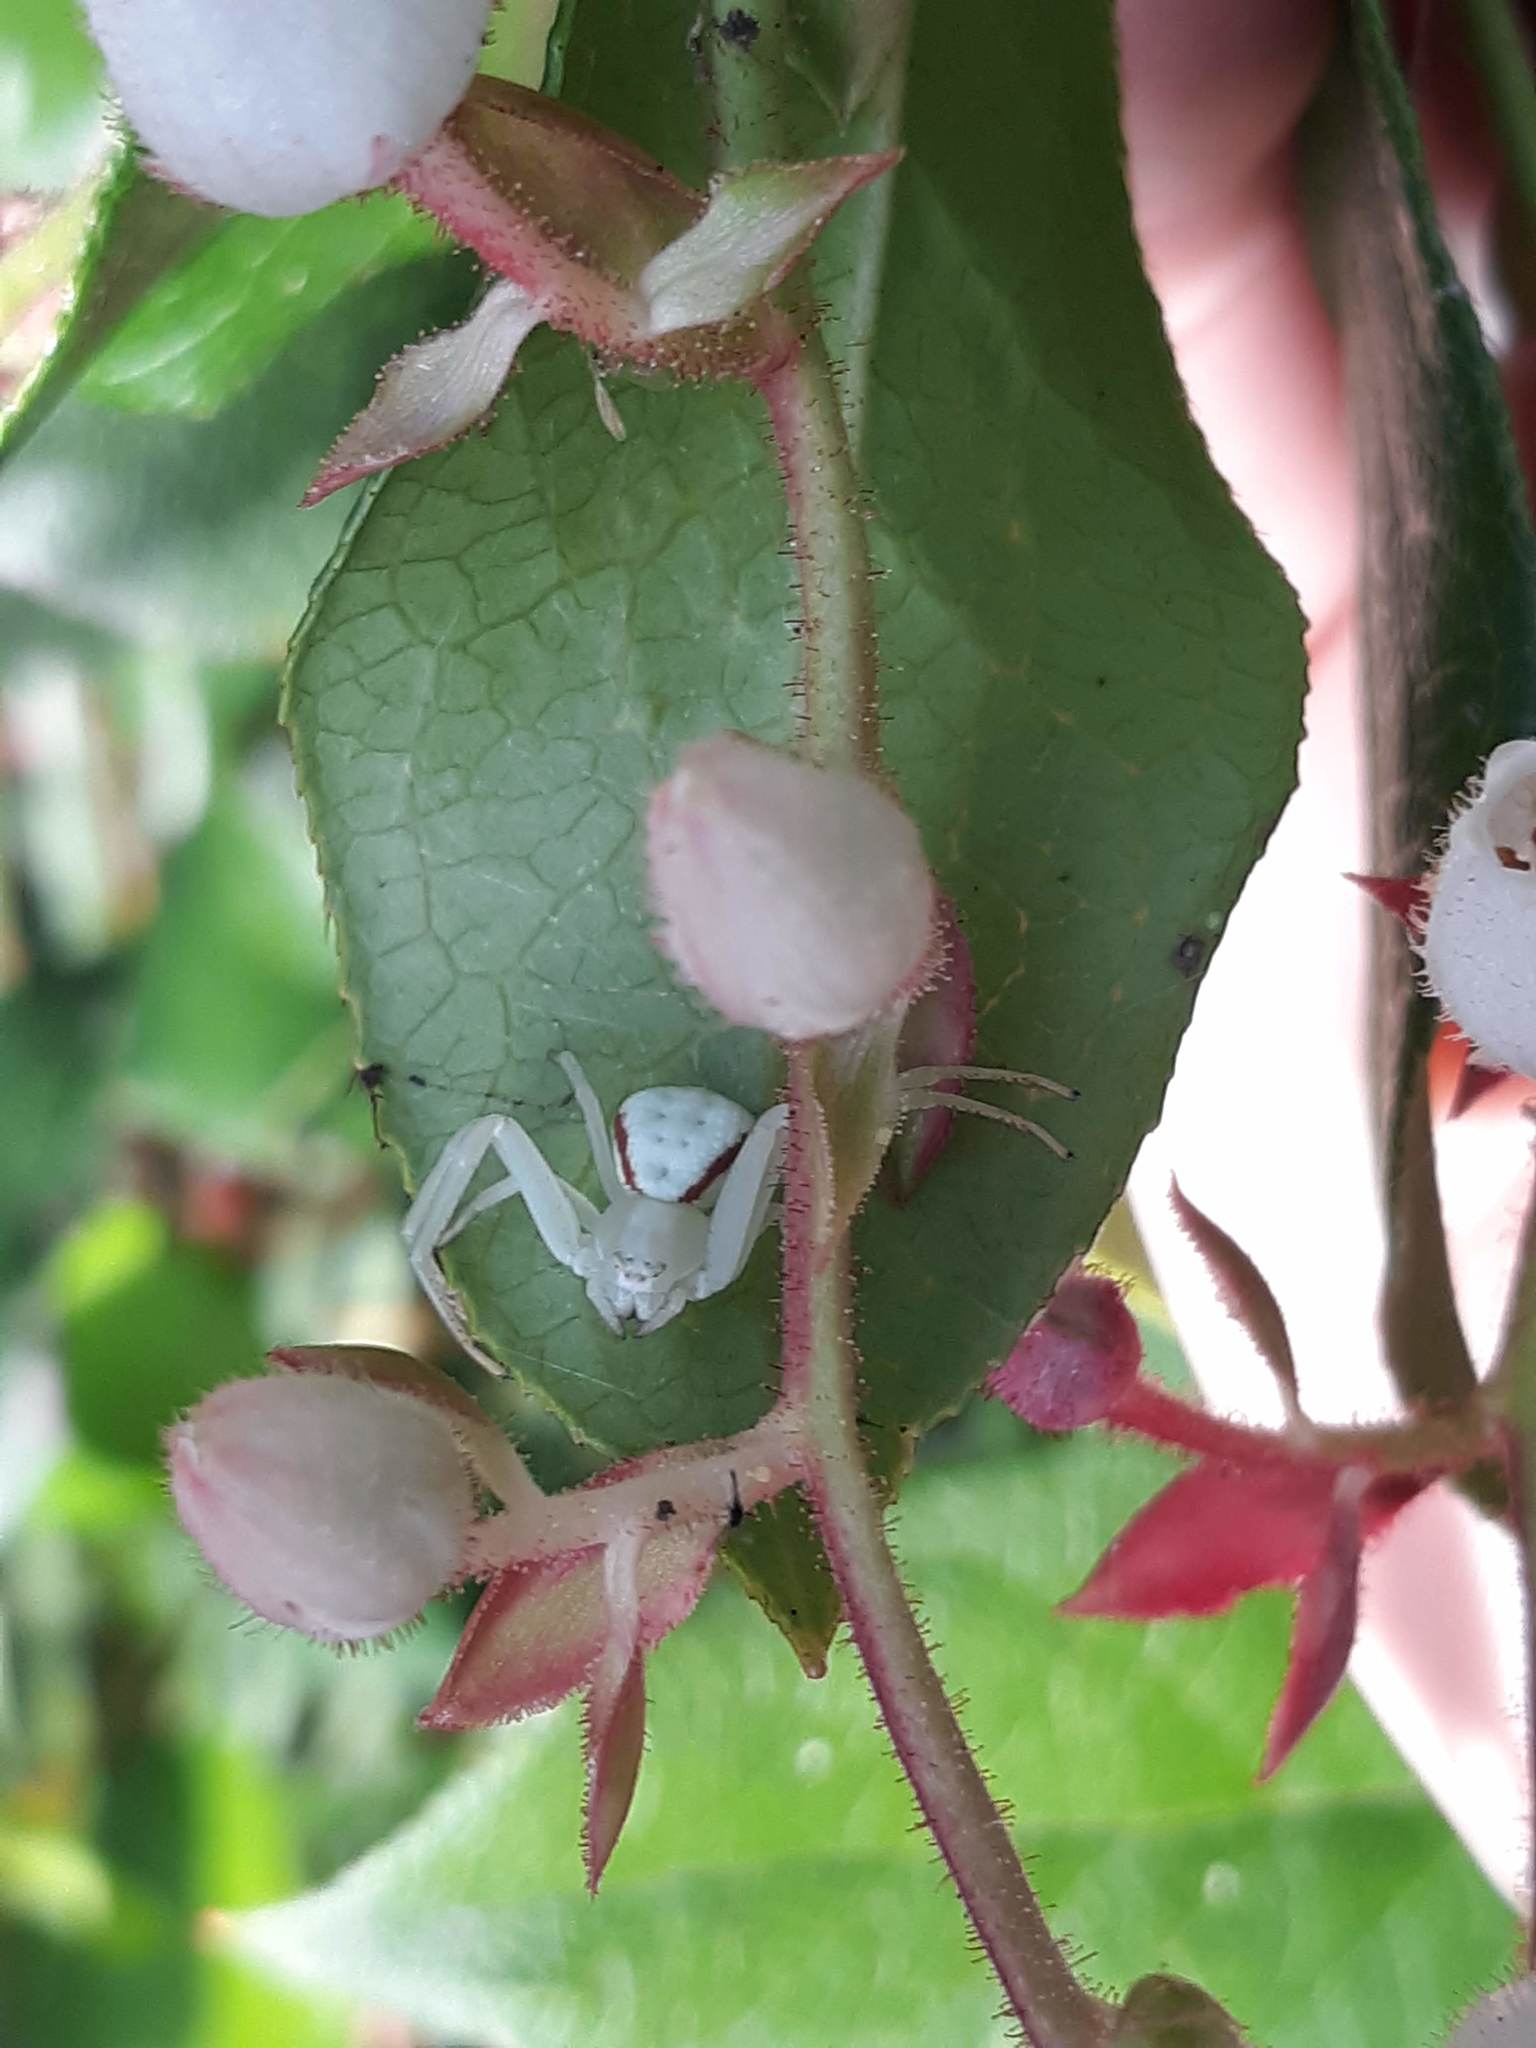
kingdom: Animalia
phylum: Arthropoda
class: Arachnida
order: Araneae
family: Thomisidae
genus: Misumena
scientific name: Misumena vatia
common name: Goldenrod crab spider
